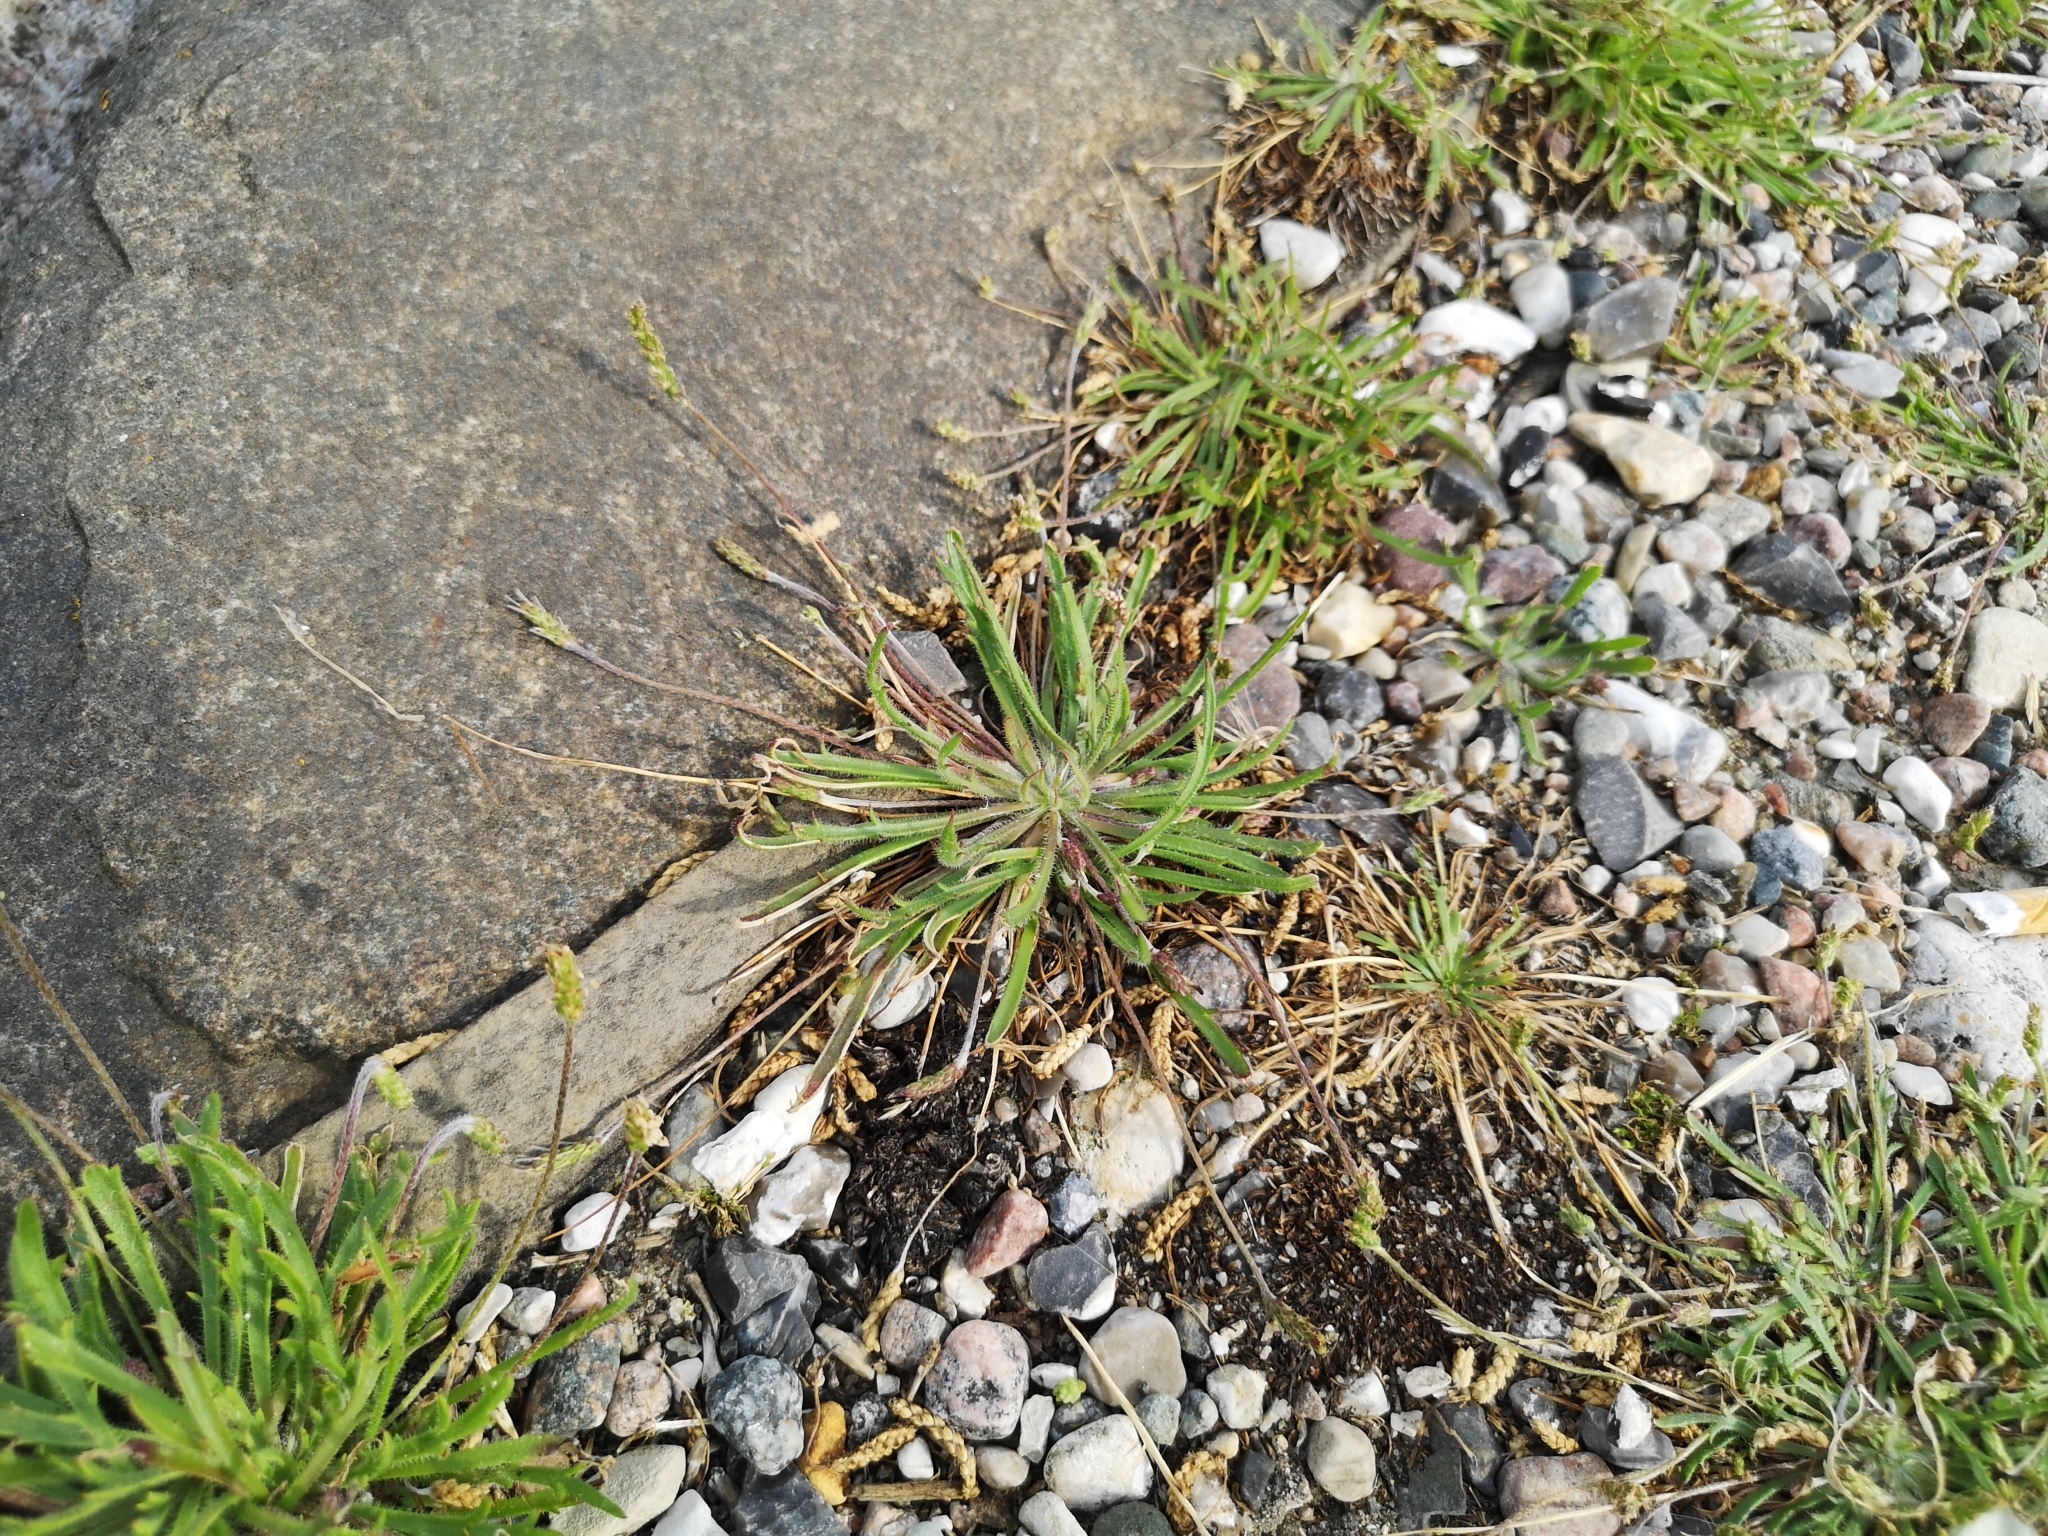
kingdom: Plantae
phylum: Tracheophyta
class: Magnoliopsida
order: Lamiales
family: Plantaginaceae
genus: Plantago
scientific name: Plantago coronopus
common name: Buck's-horn plantain
